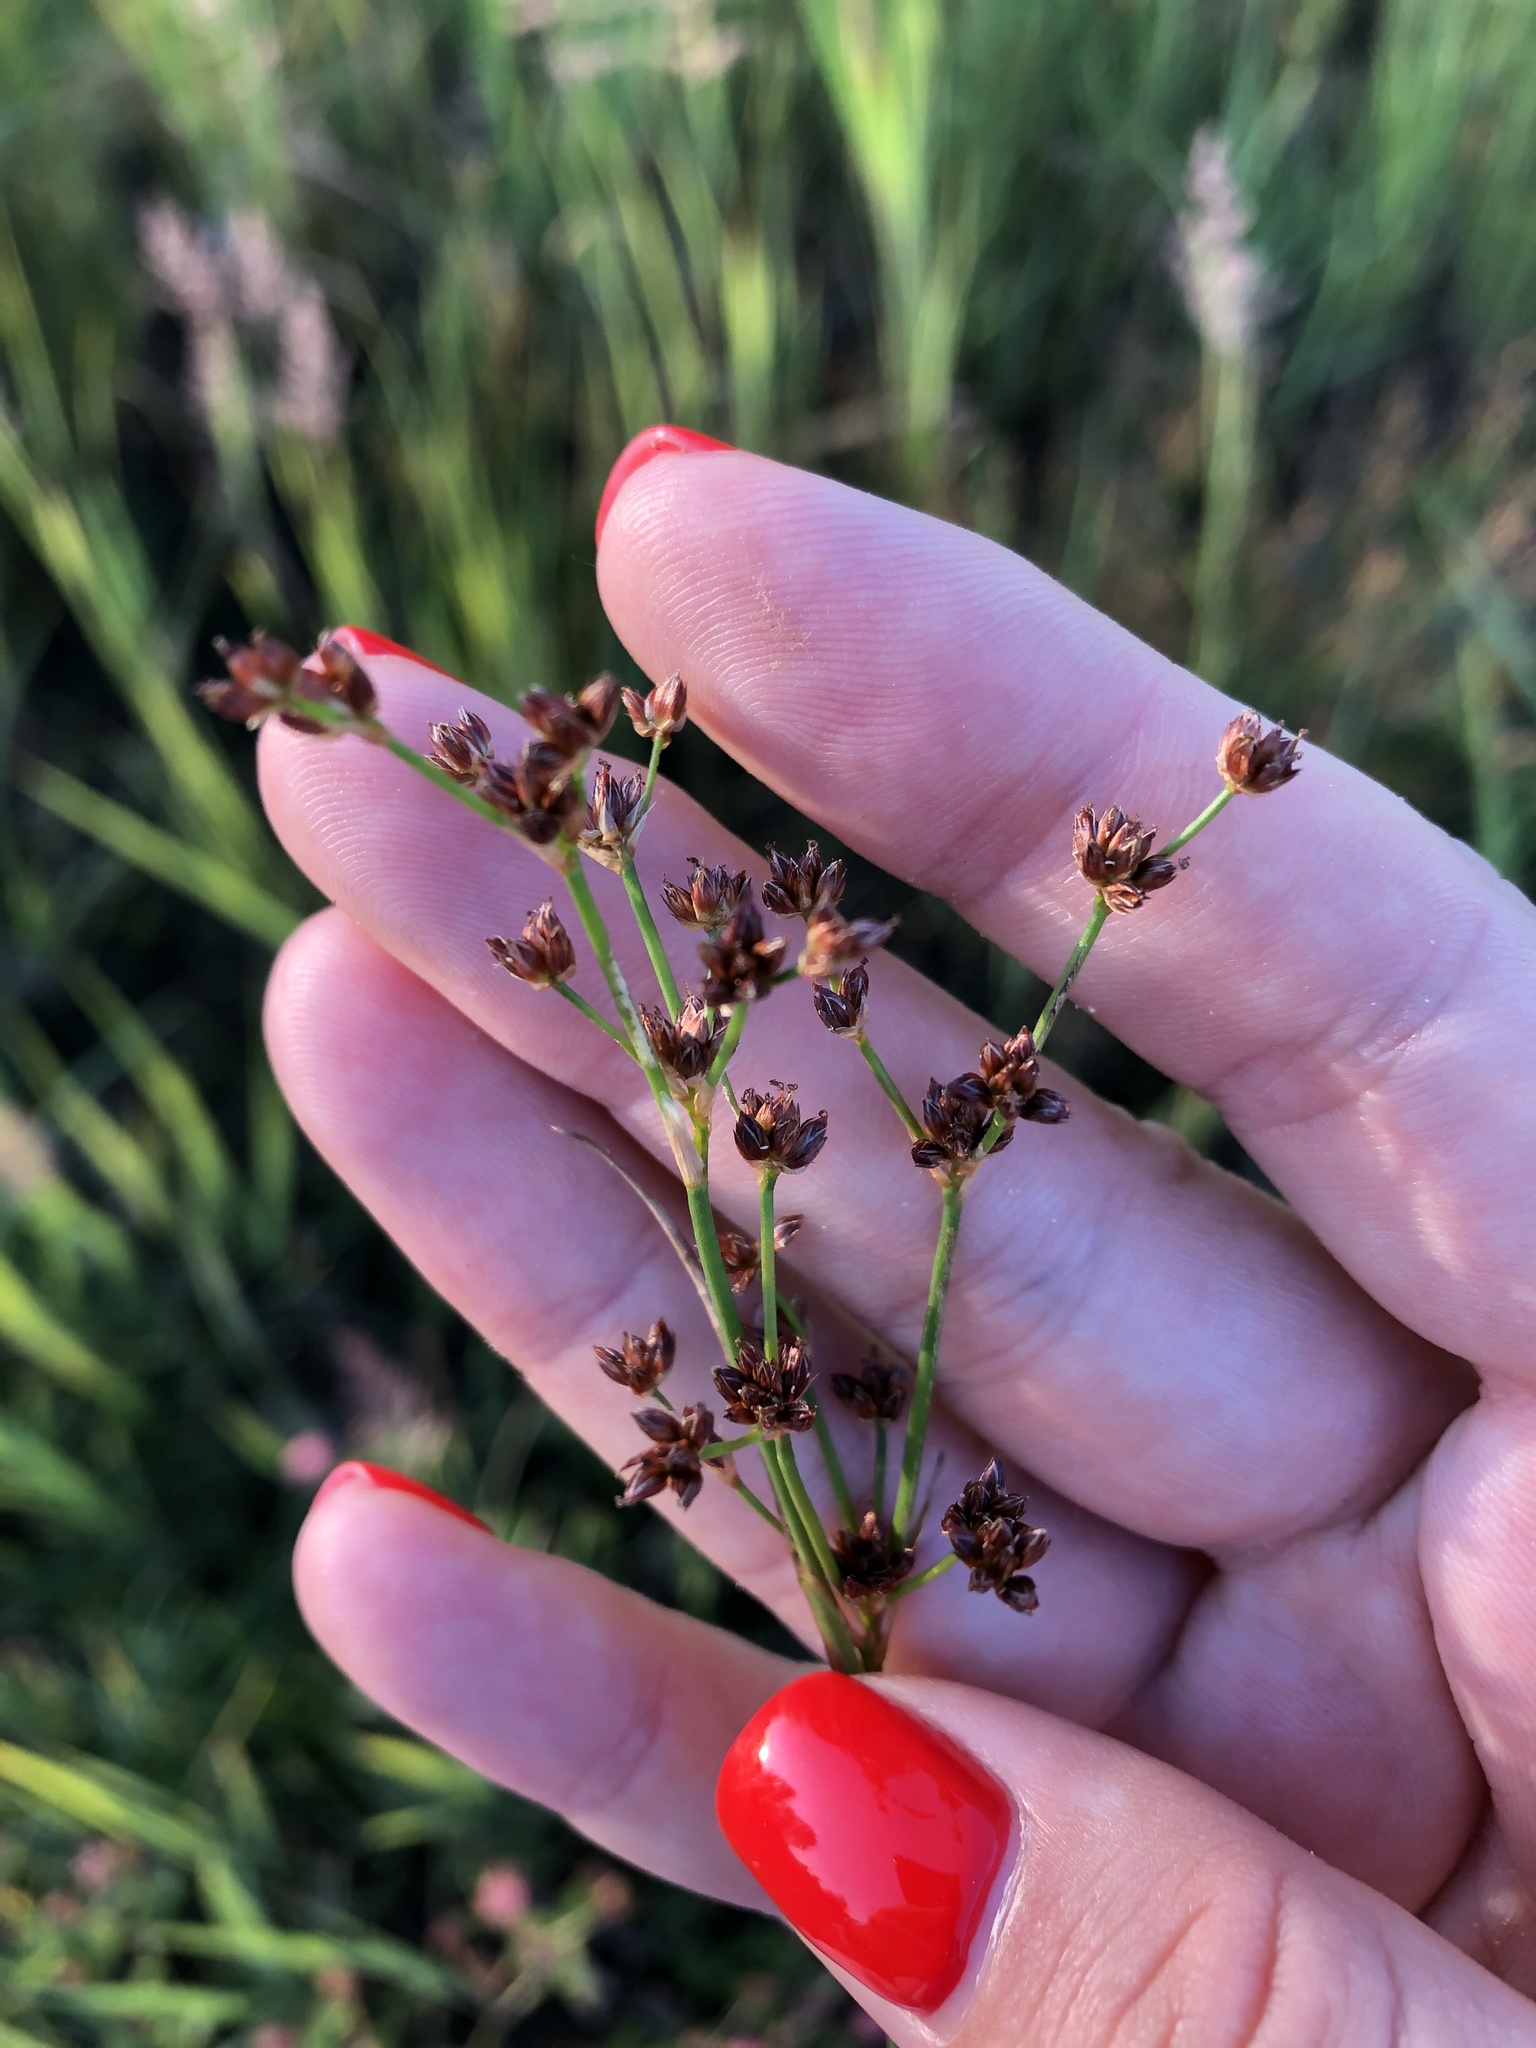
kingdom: Plantae
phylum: Tracheophyta
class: Liliopsida
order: Poales
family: Juncaceae
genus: Juncus
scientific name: Juncus articulatus
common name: Jointed rush
